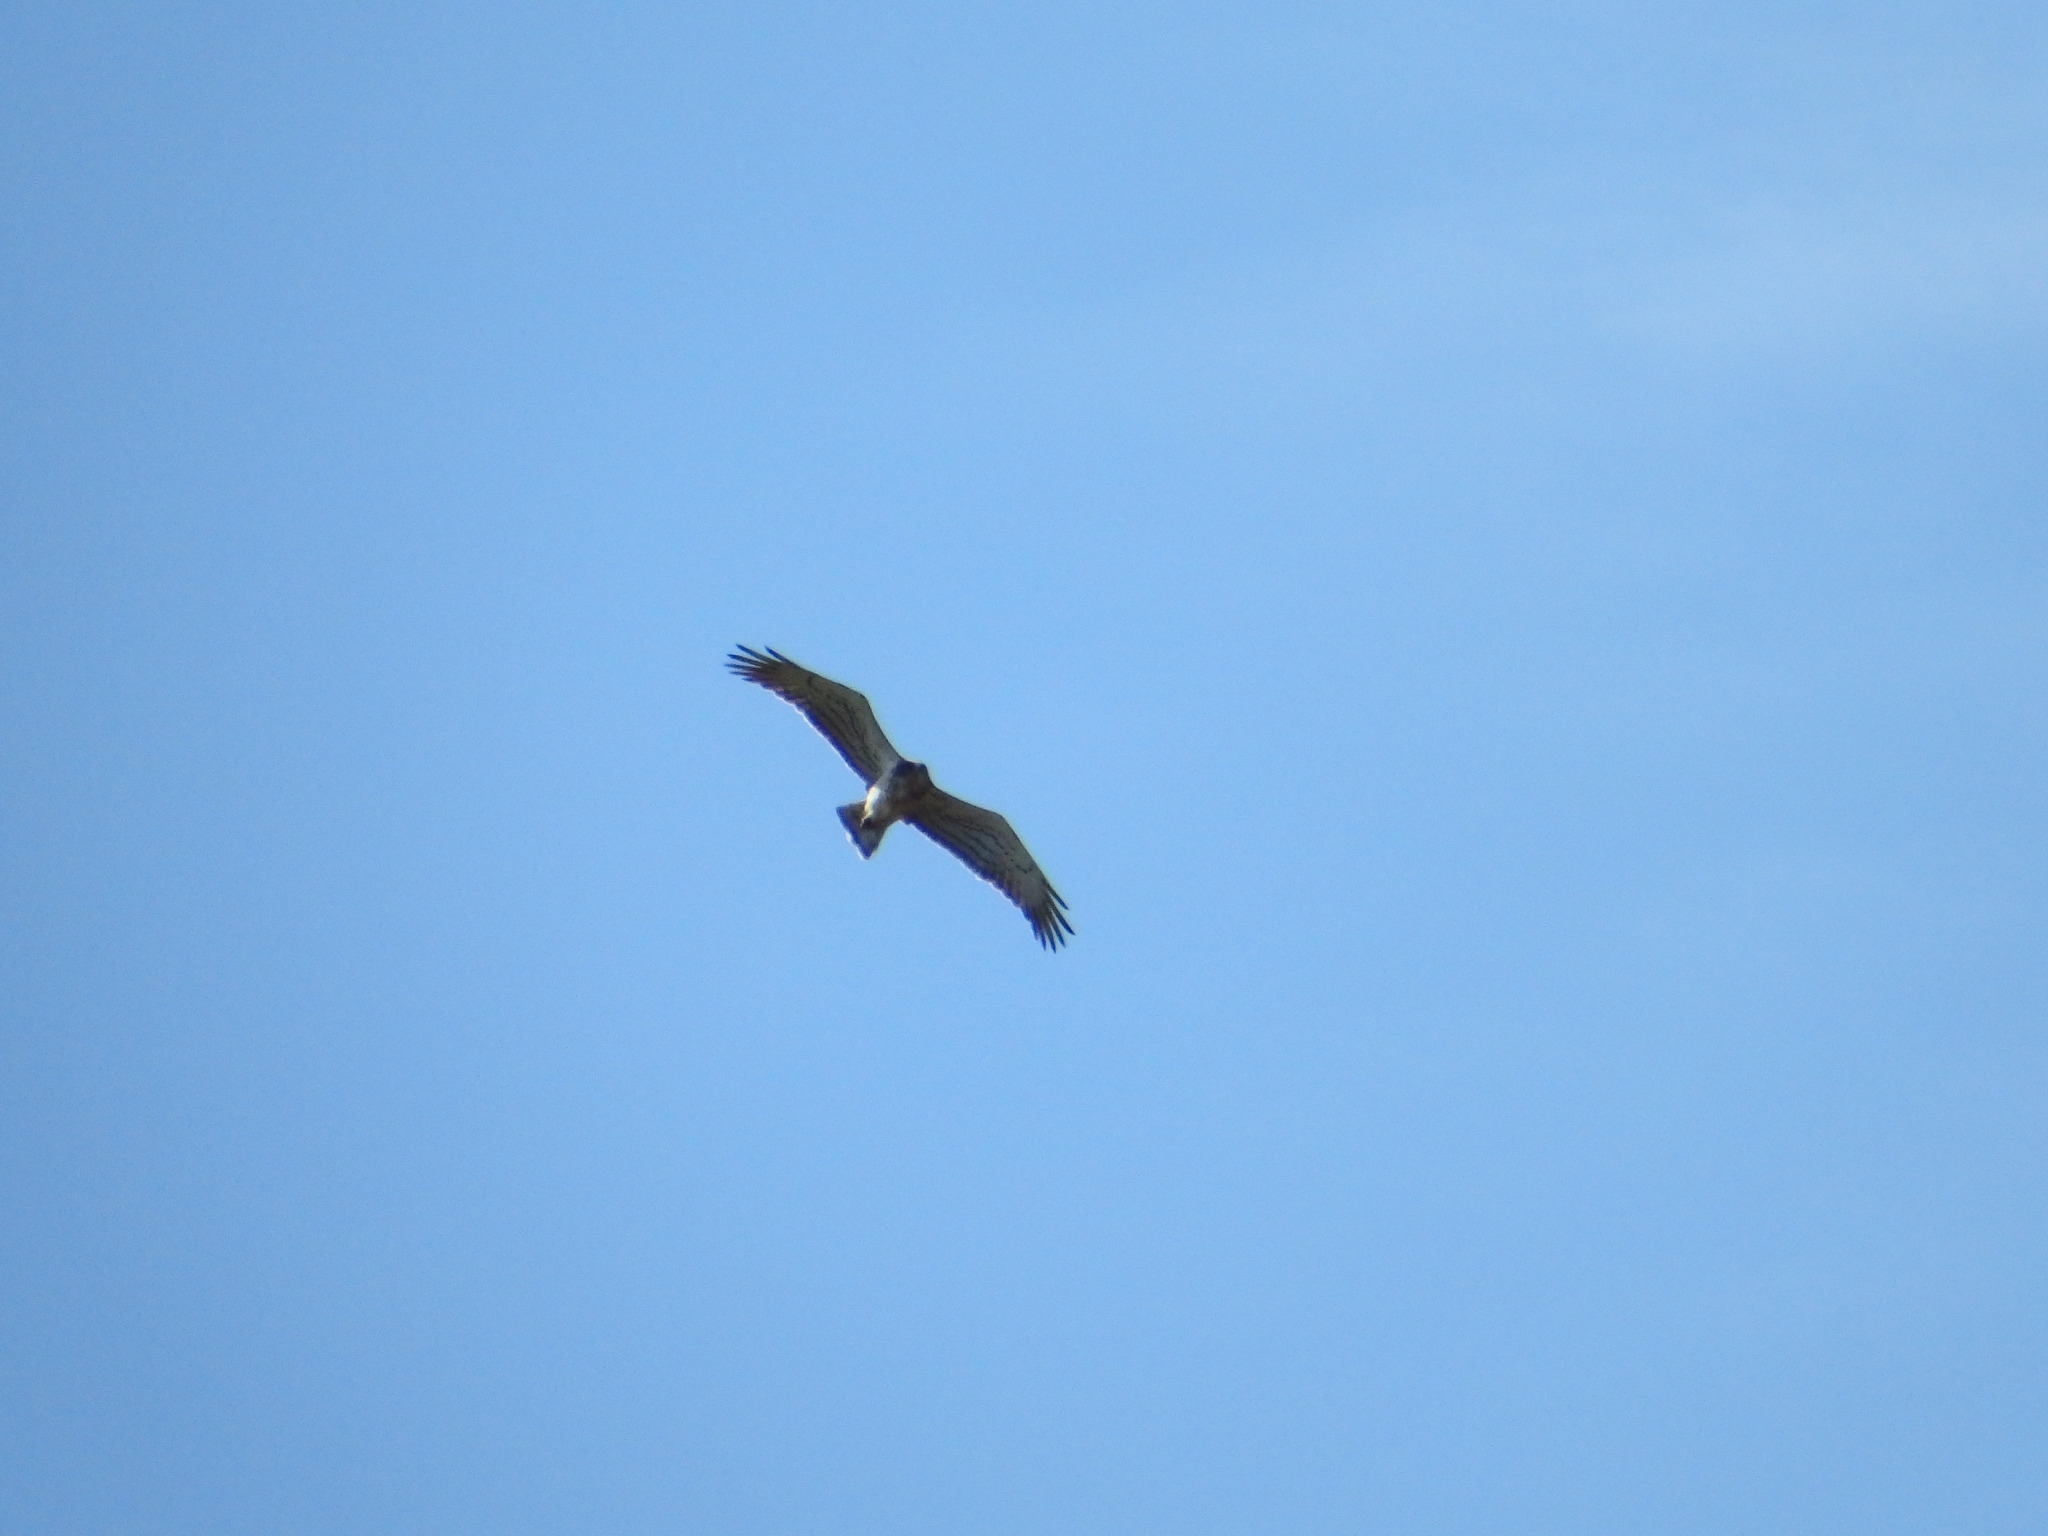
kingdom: Animalia
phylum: Chordata
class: Aves
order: Accipitriformes
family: Accipitridae
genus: Circaetus
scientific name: Circaetus gallicus
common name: Short-toed snake eagle
